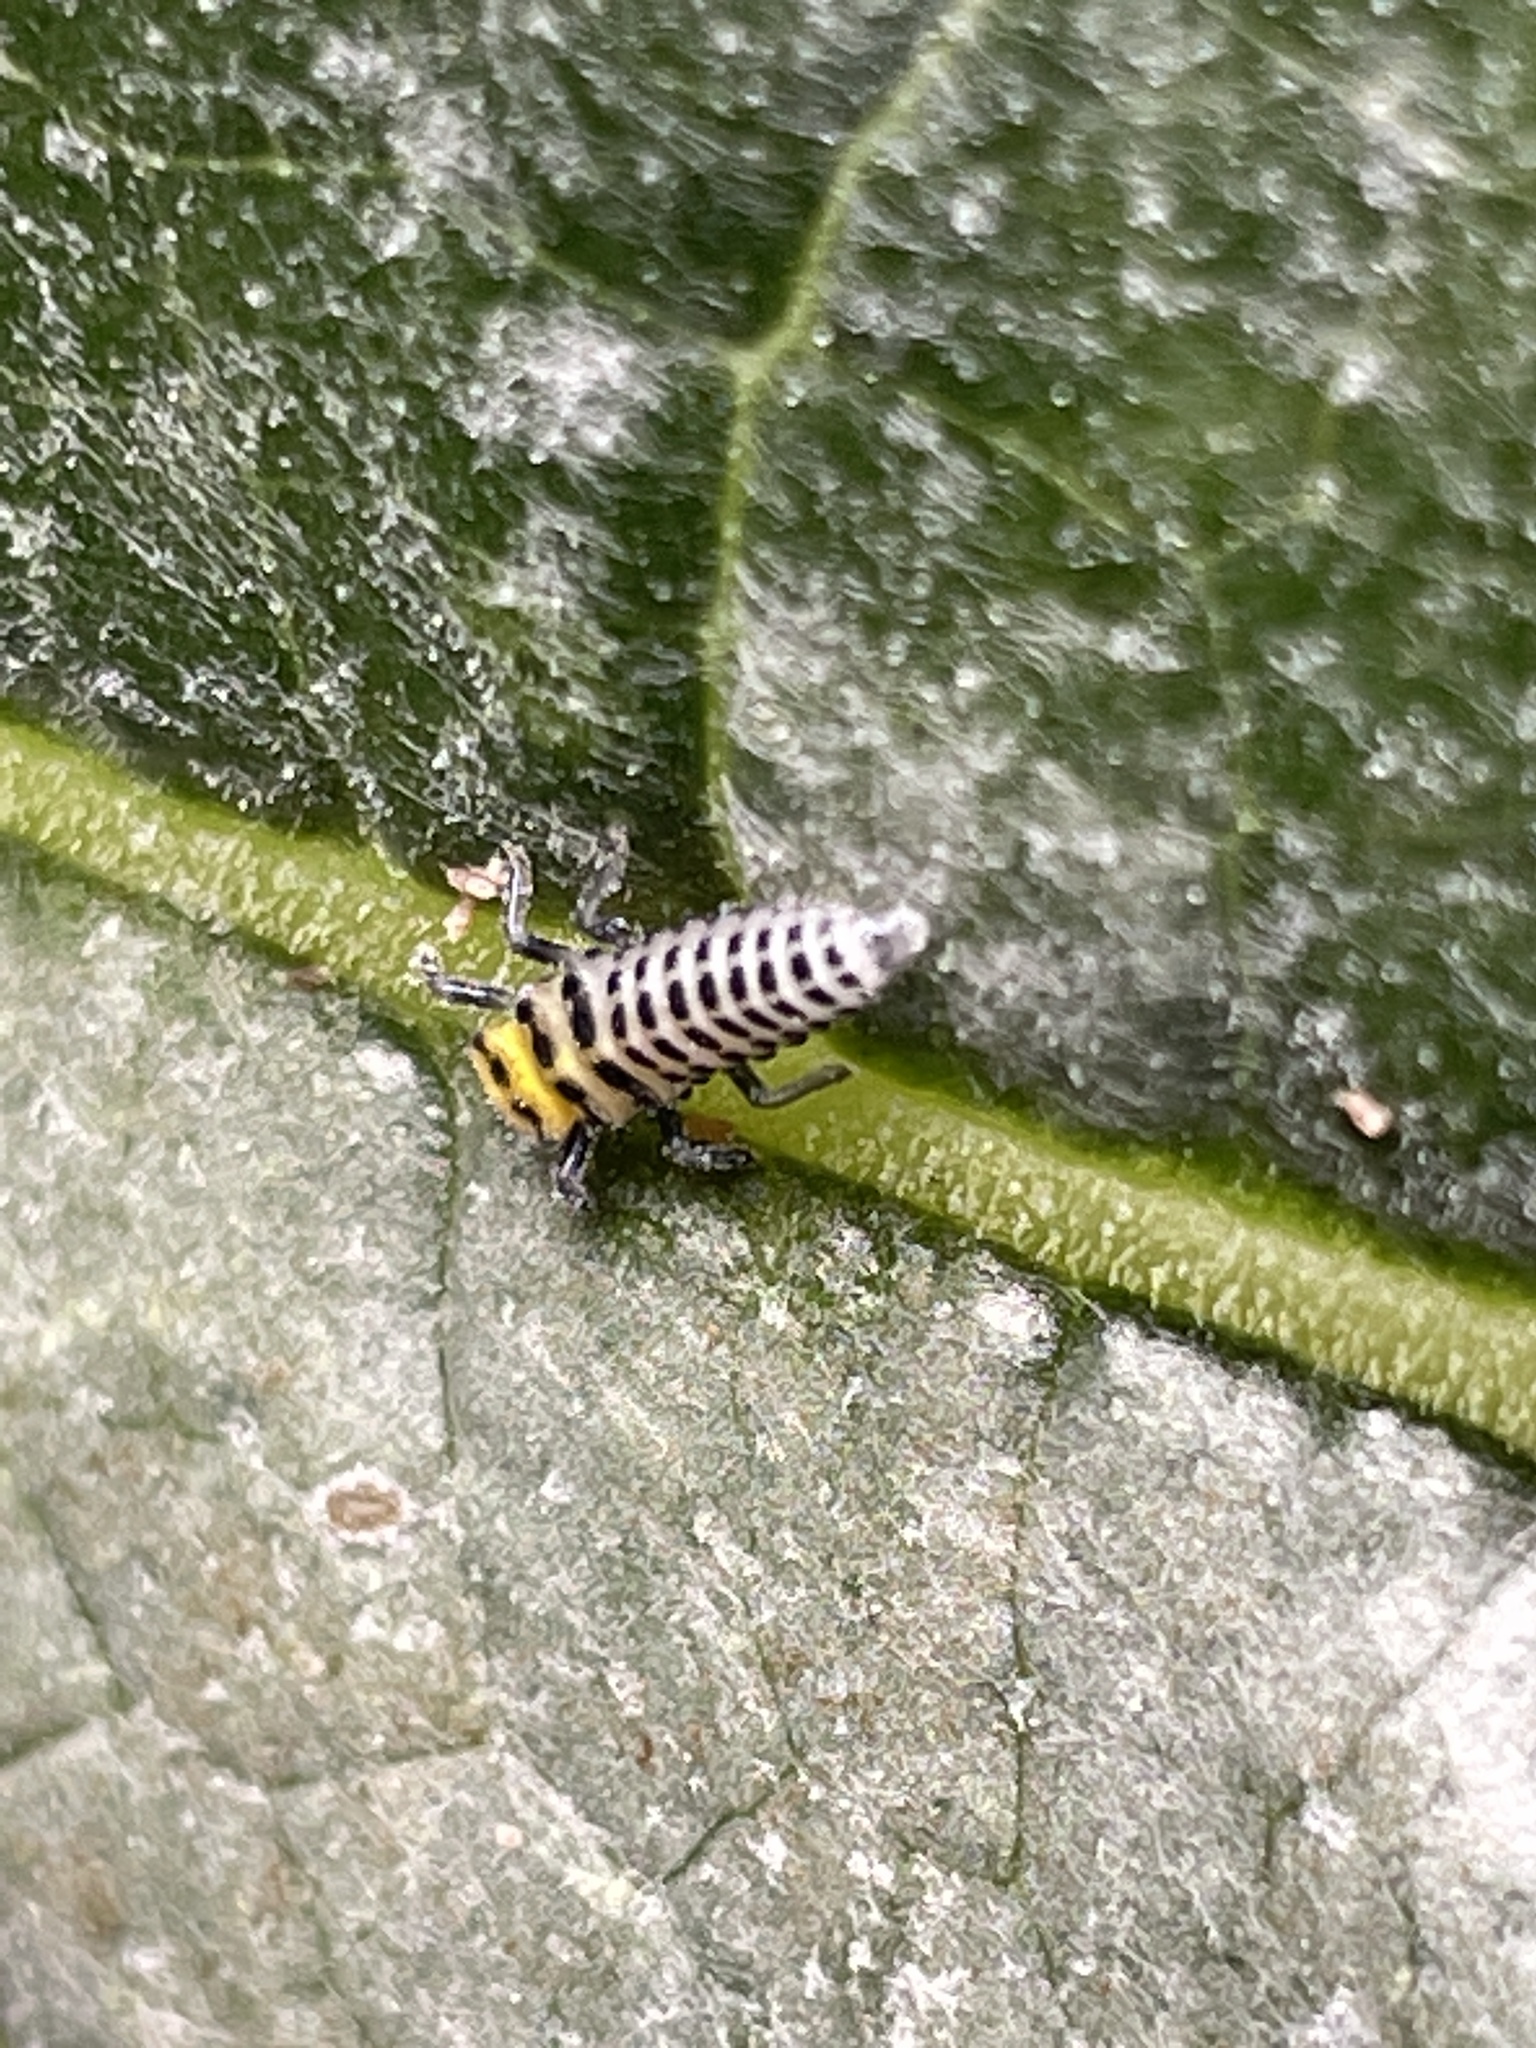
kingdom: Animalia
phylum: Arthropoda
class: Insecta
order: Coleoptera
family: Coccinellidae
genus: Illeis
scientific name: Illeis galbula
